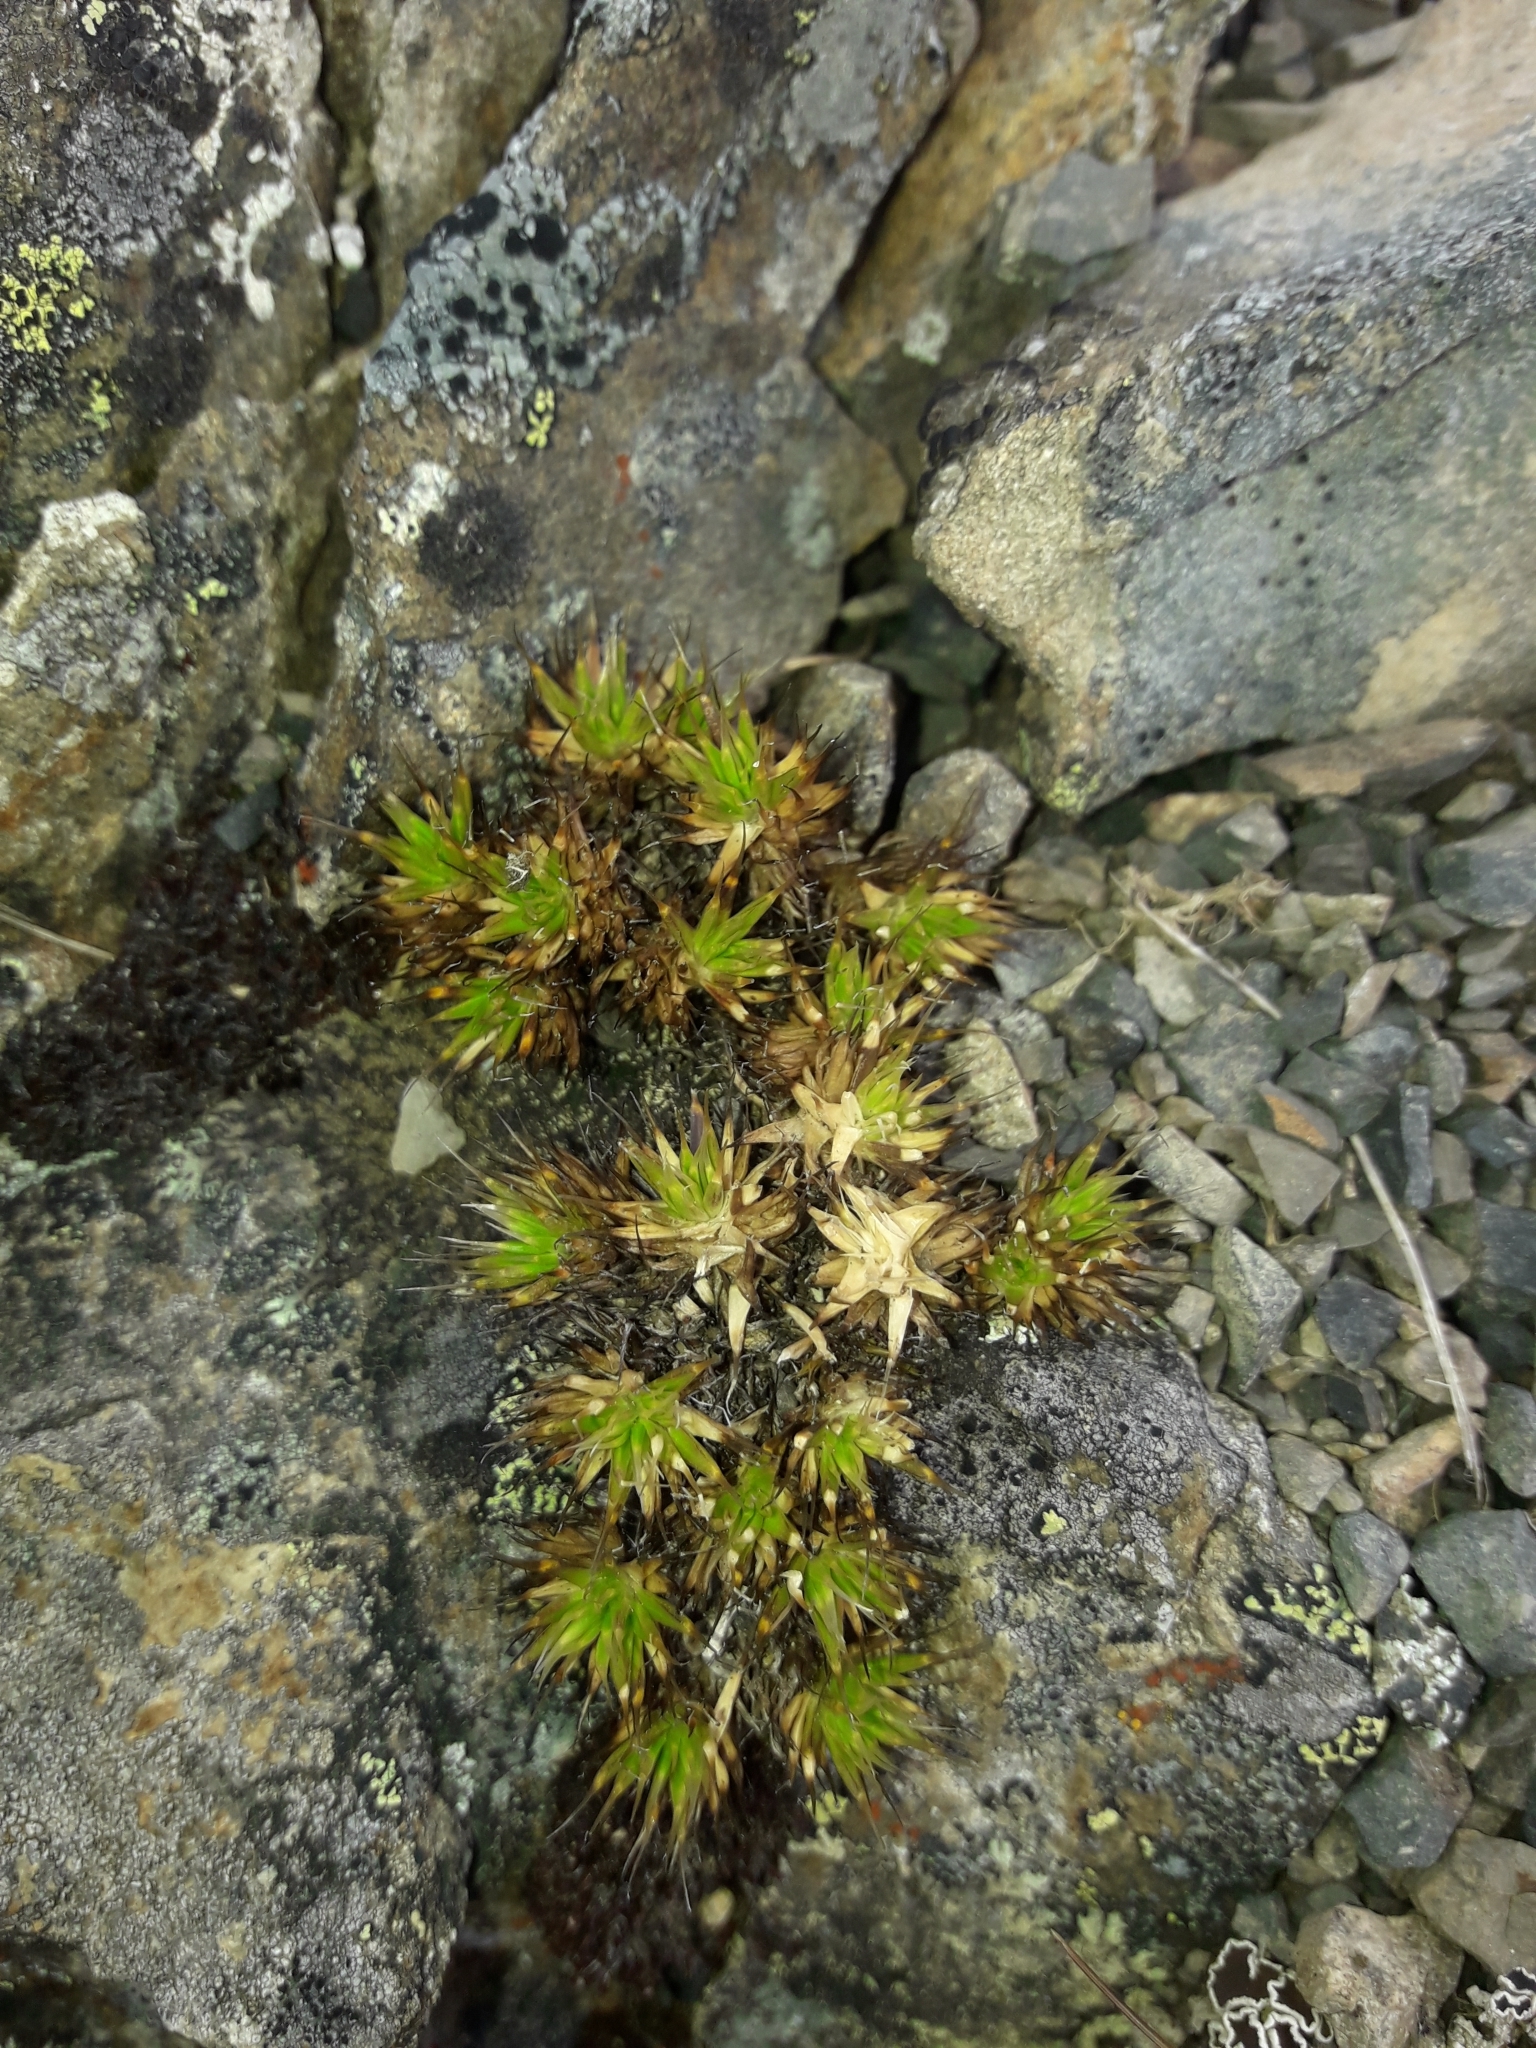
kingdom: Plantae
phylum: Tracheophyta
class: Magnoliopsida
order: Caryophyllales
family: Caryophyllaceae
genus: Colobanthus
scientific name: Colobanthus acicularis
